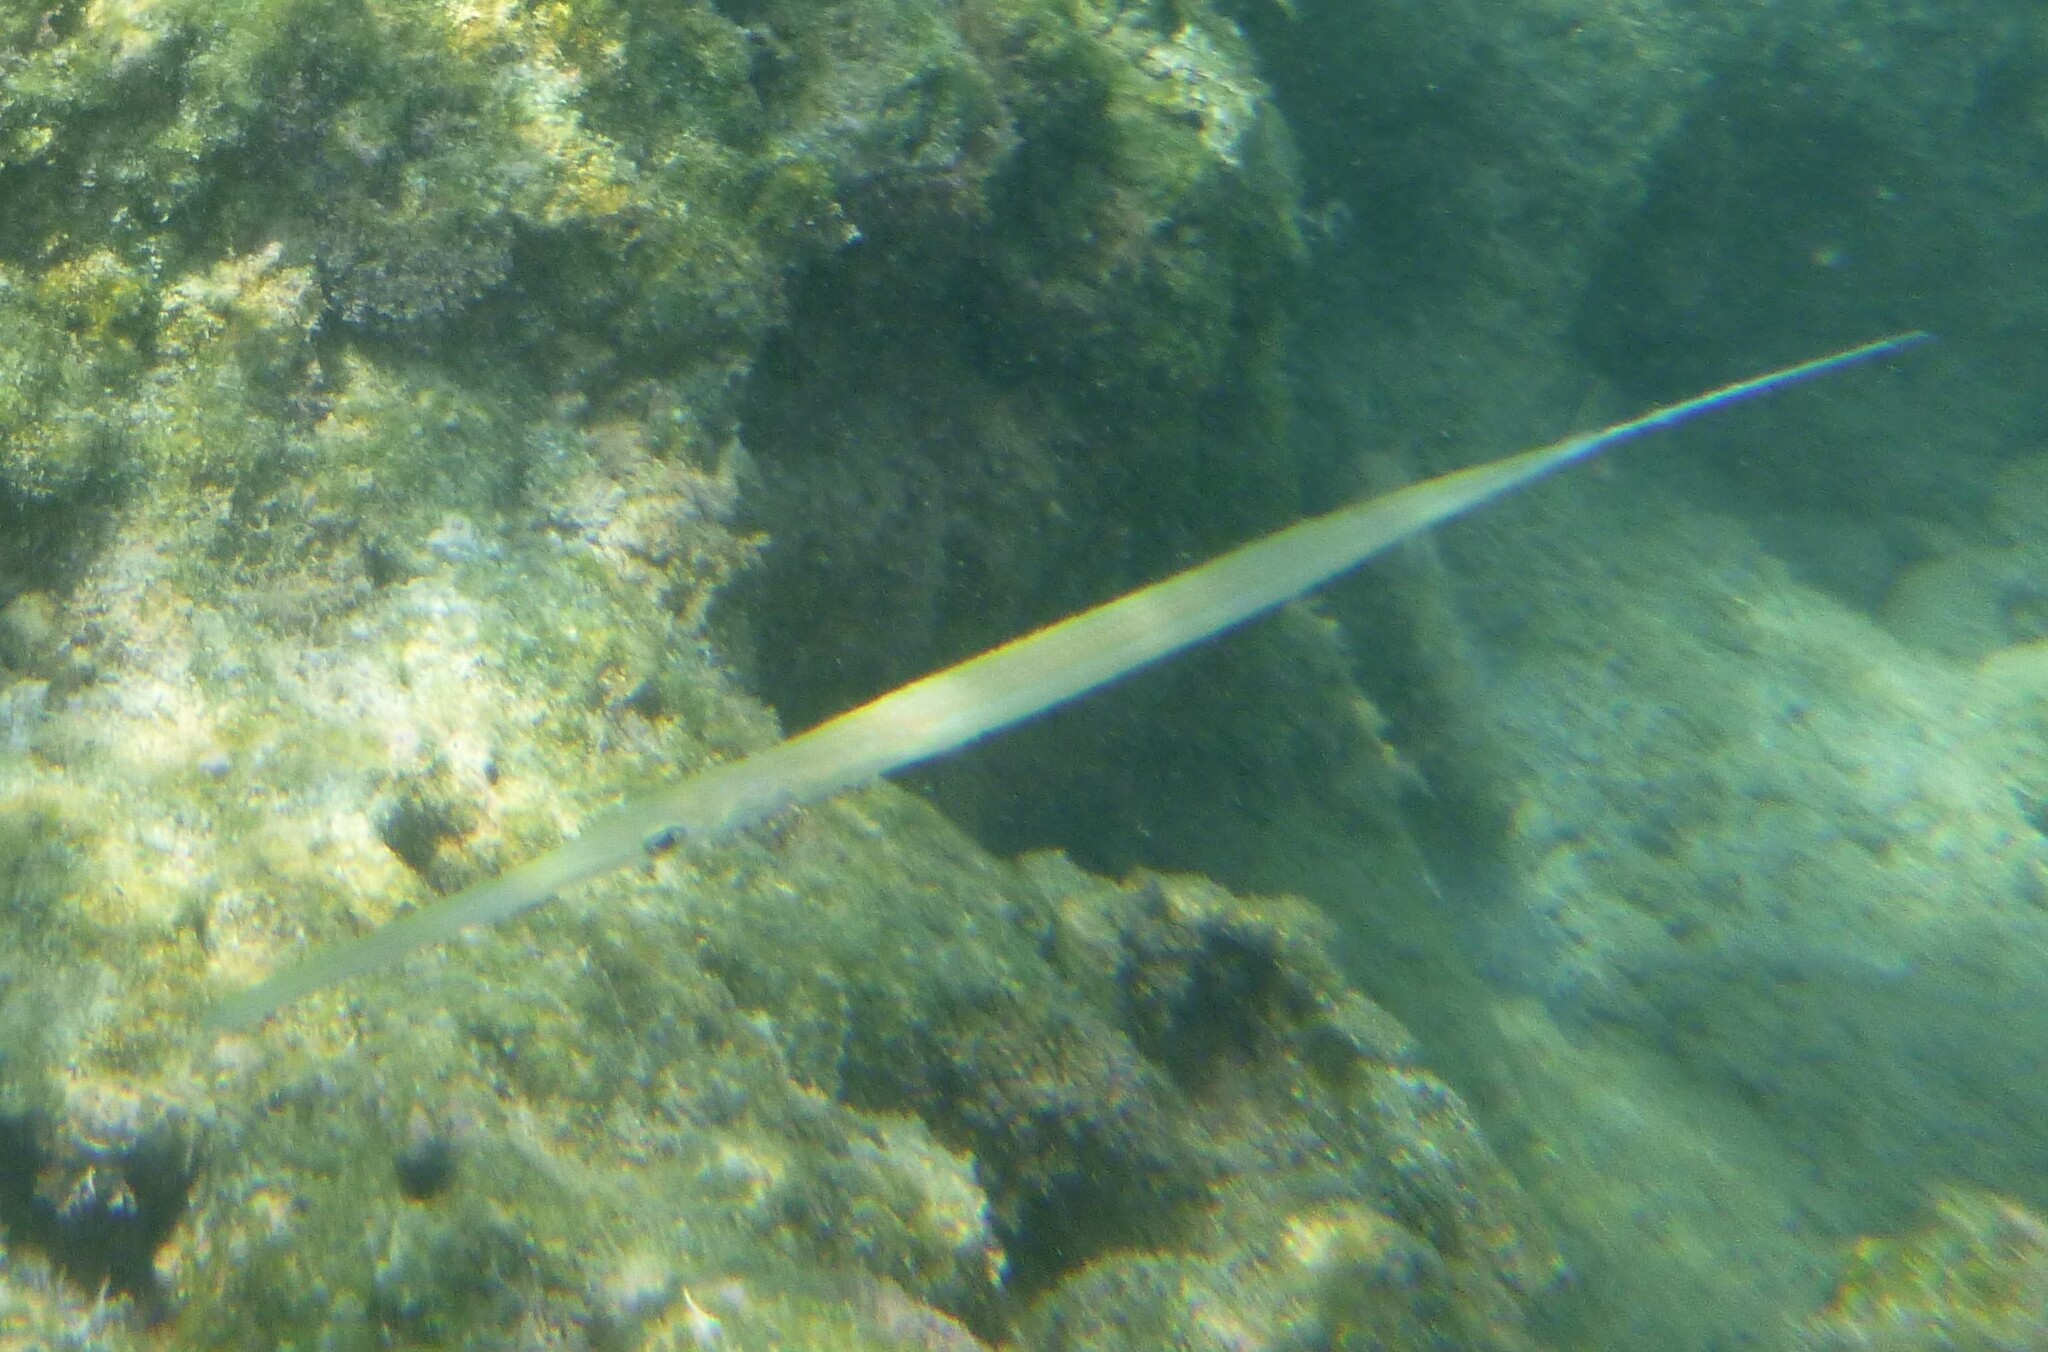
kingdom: Animalia
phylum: Chordata
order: Syngnathiformes
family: Fistulariidae
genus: Fistularia
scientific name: Fistularia commersonii
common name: Bluespotted cornetfish
